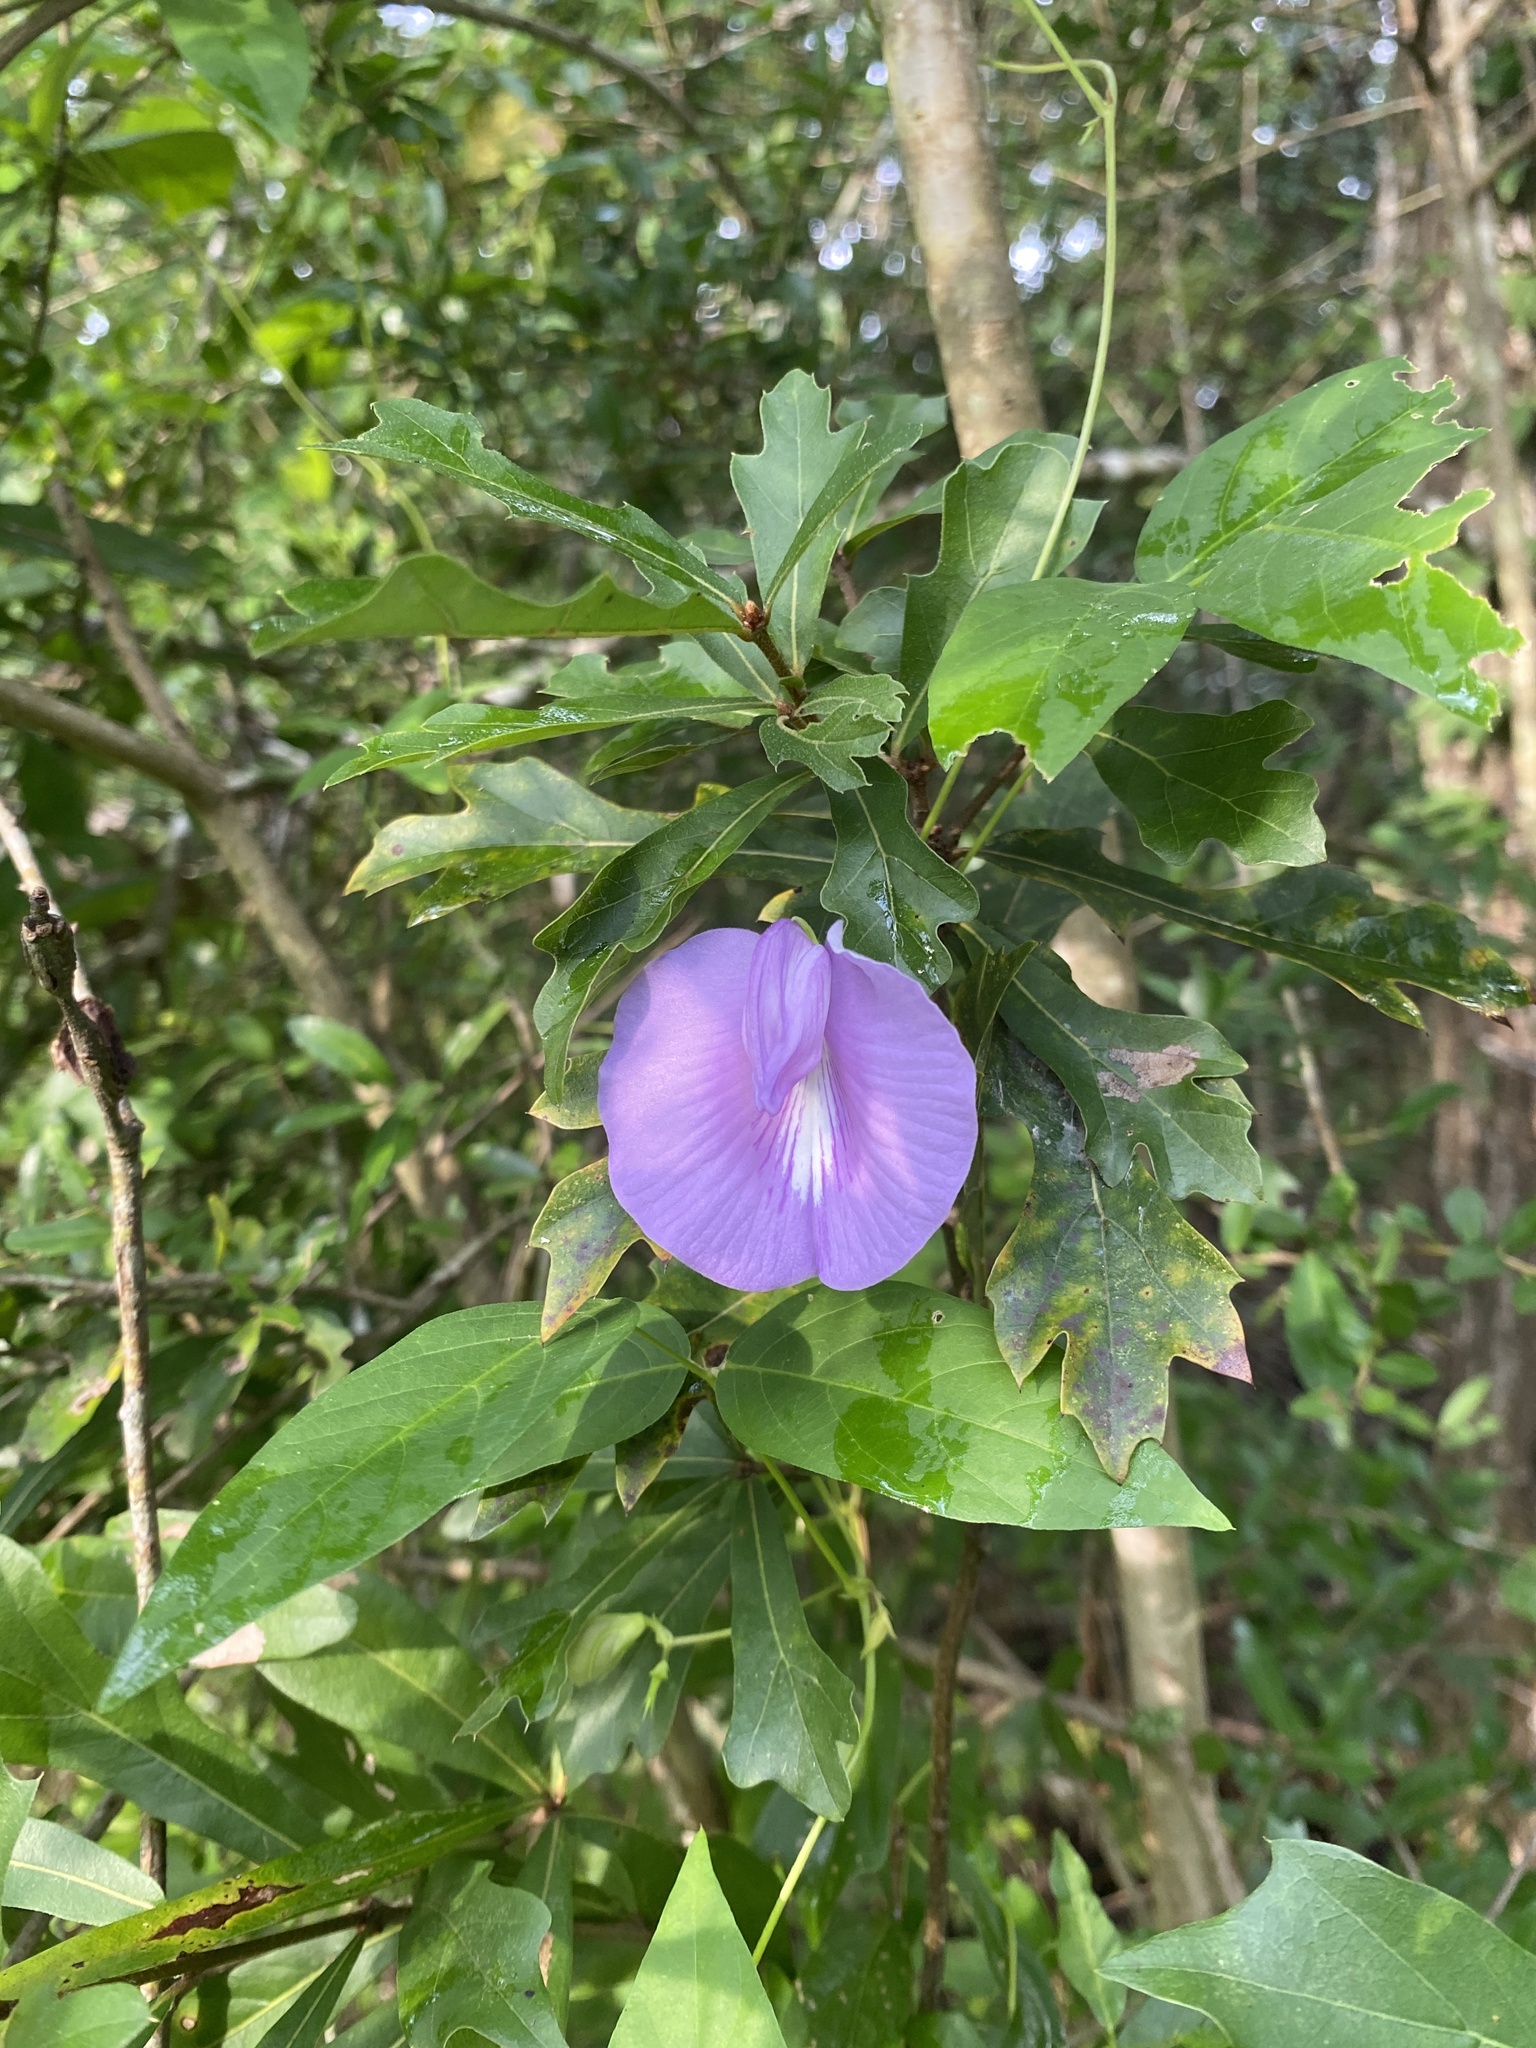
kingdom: Plantae
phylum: Tracheophyta
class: Magnoliopsida
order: Fabales
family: Fabaceae
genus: Centrosema
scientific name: Centrosema virginianum
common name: Butterfly-pea
